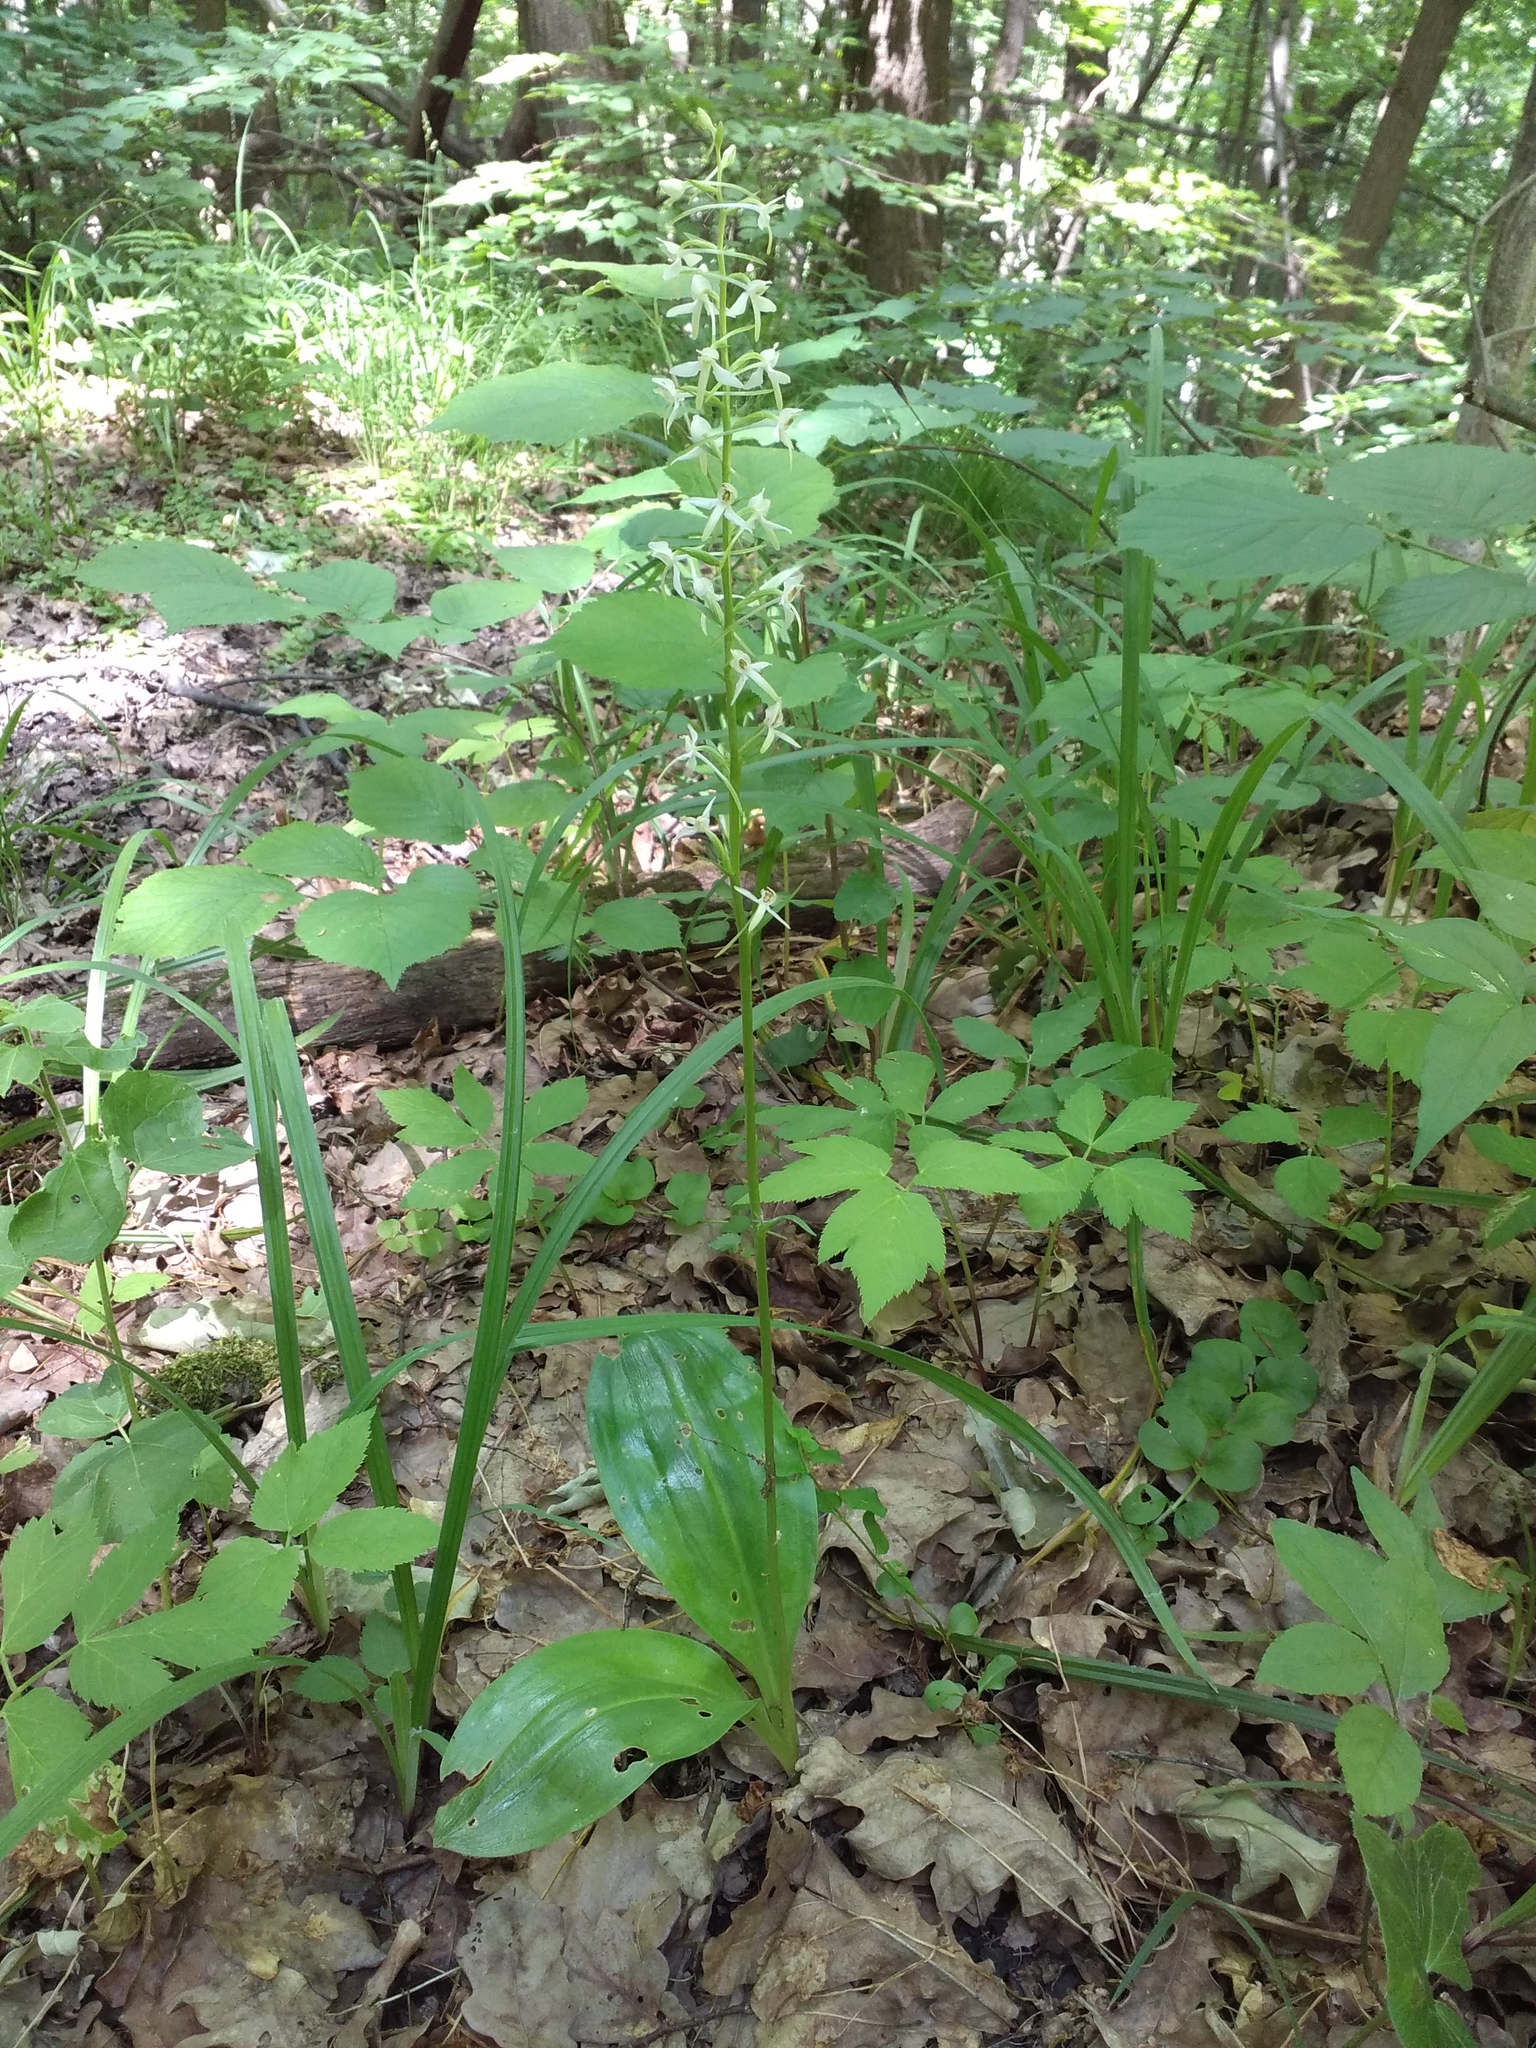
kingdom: Plantae
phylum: Tracheophyta
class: Liliopsida
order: Asparagales
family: Orchidaceae
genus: Platanthera
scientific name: Platanthera bifolia
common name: Lesser butterfly-orchid
